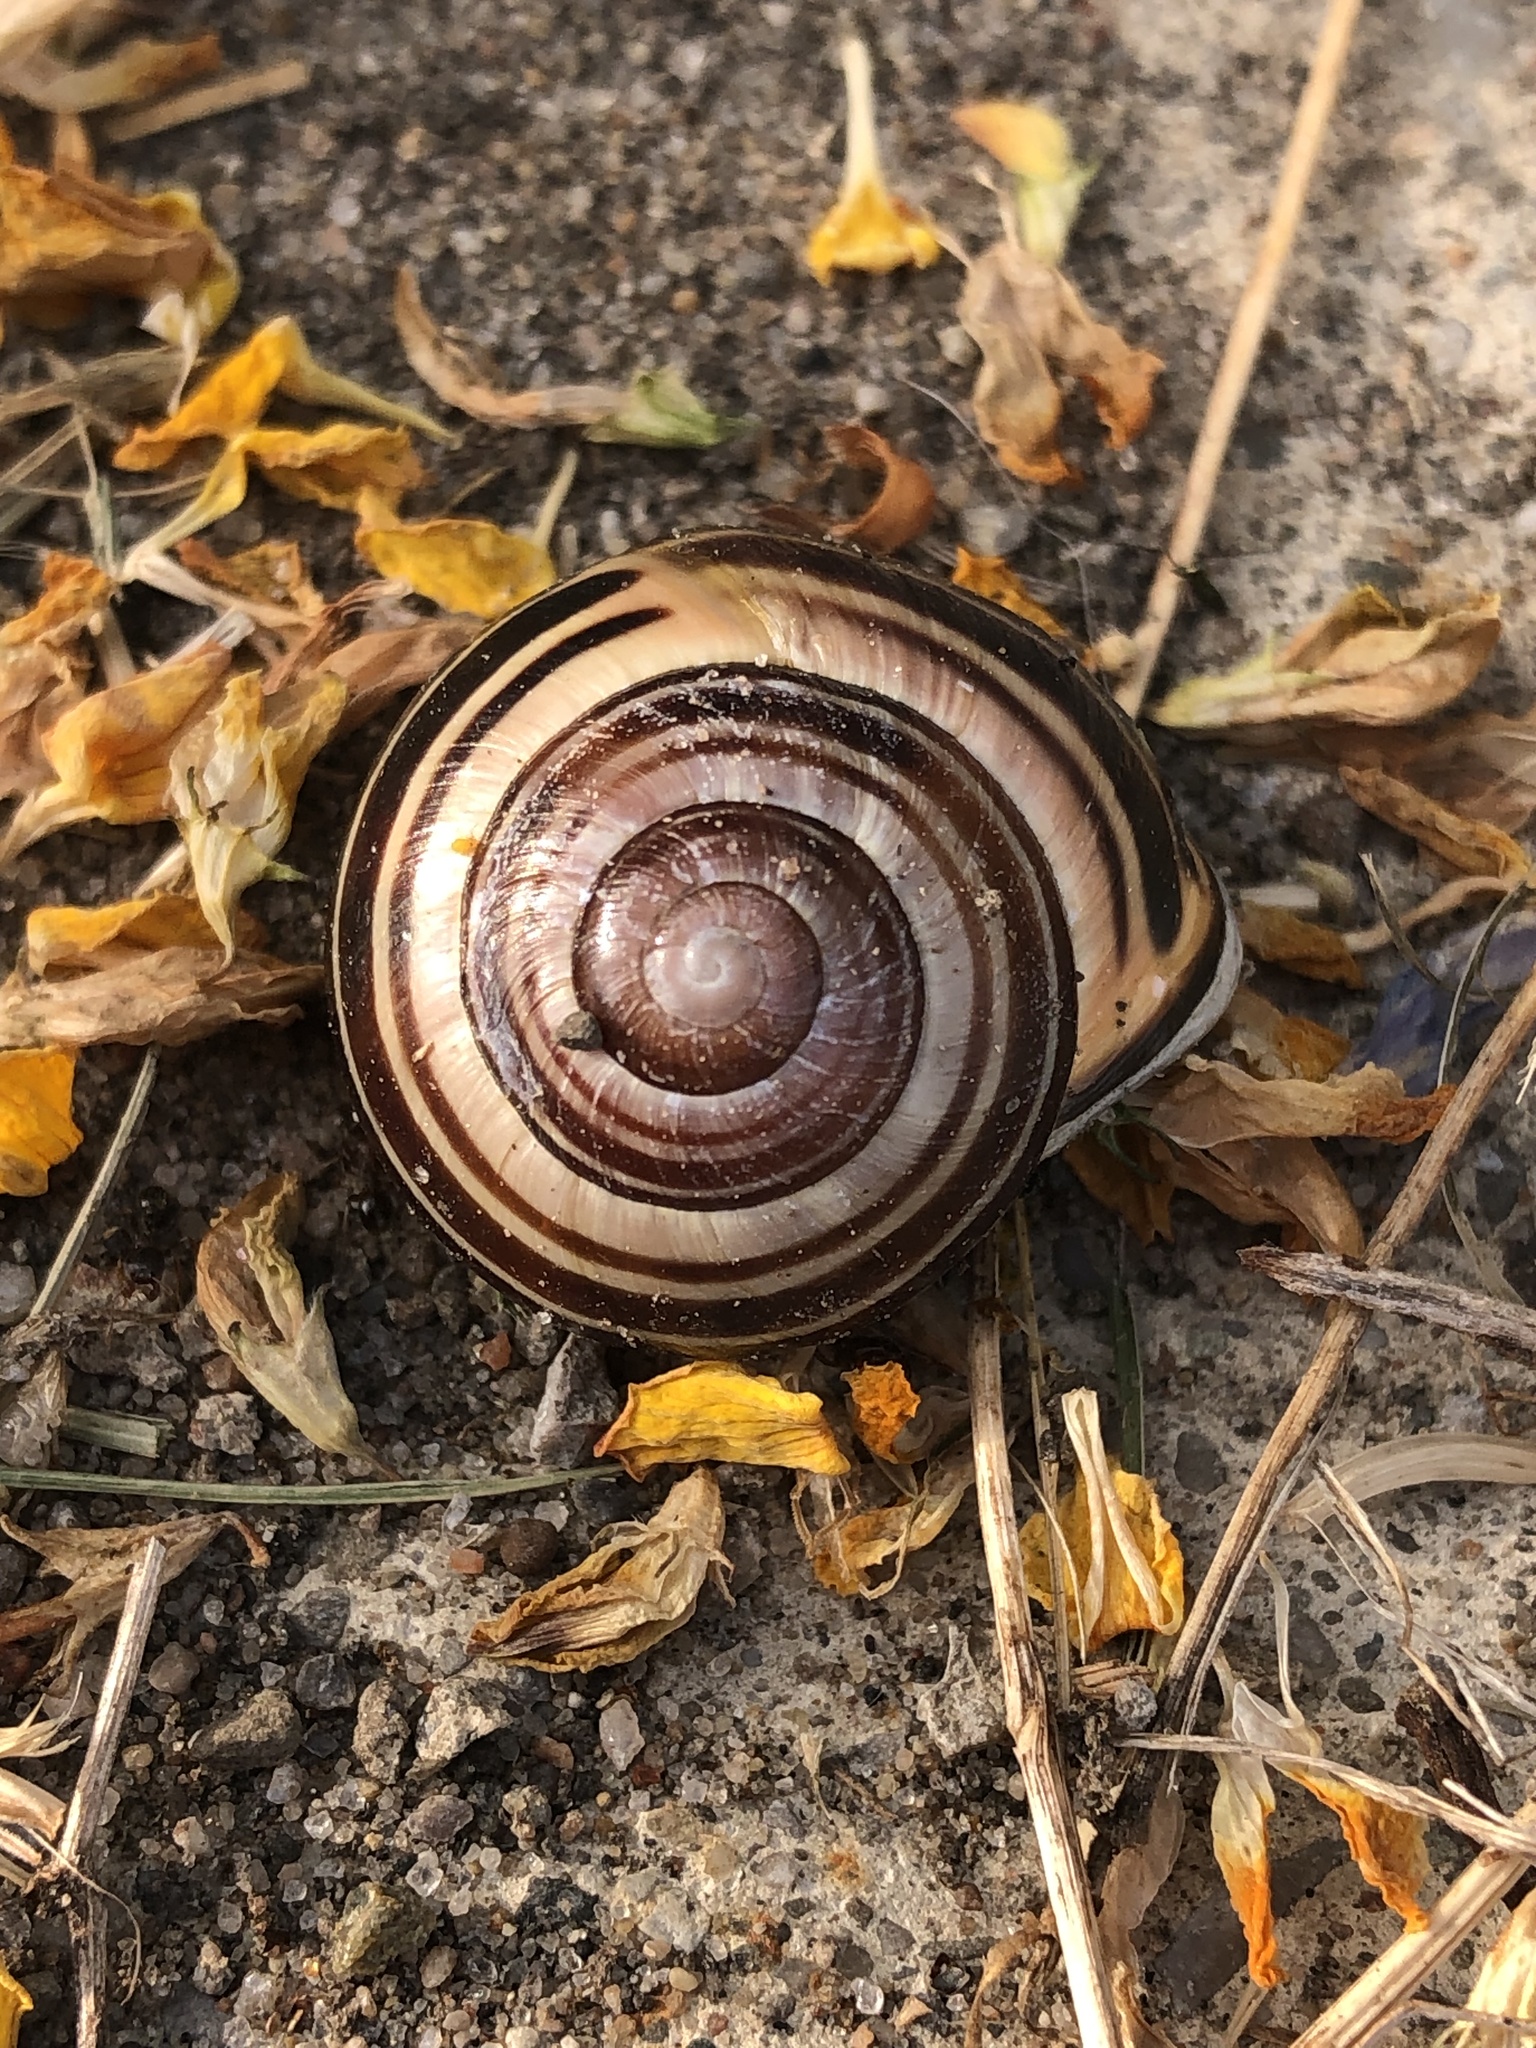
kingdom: Animalia
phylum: Mollusca
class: Gastropoda
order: Stylommatophora
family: Helicidae
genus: Cepaea
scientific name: Cepaea nemoralis
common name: Grovesnail
